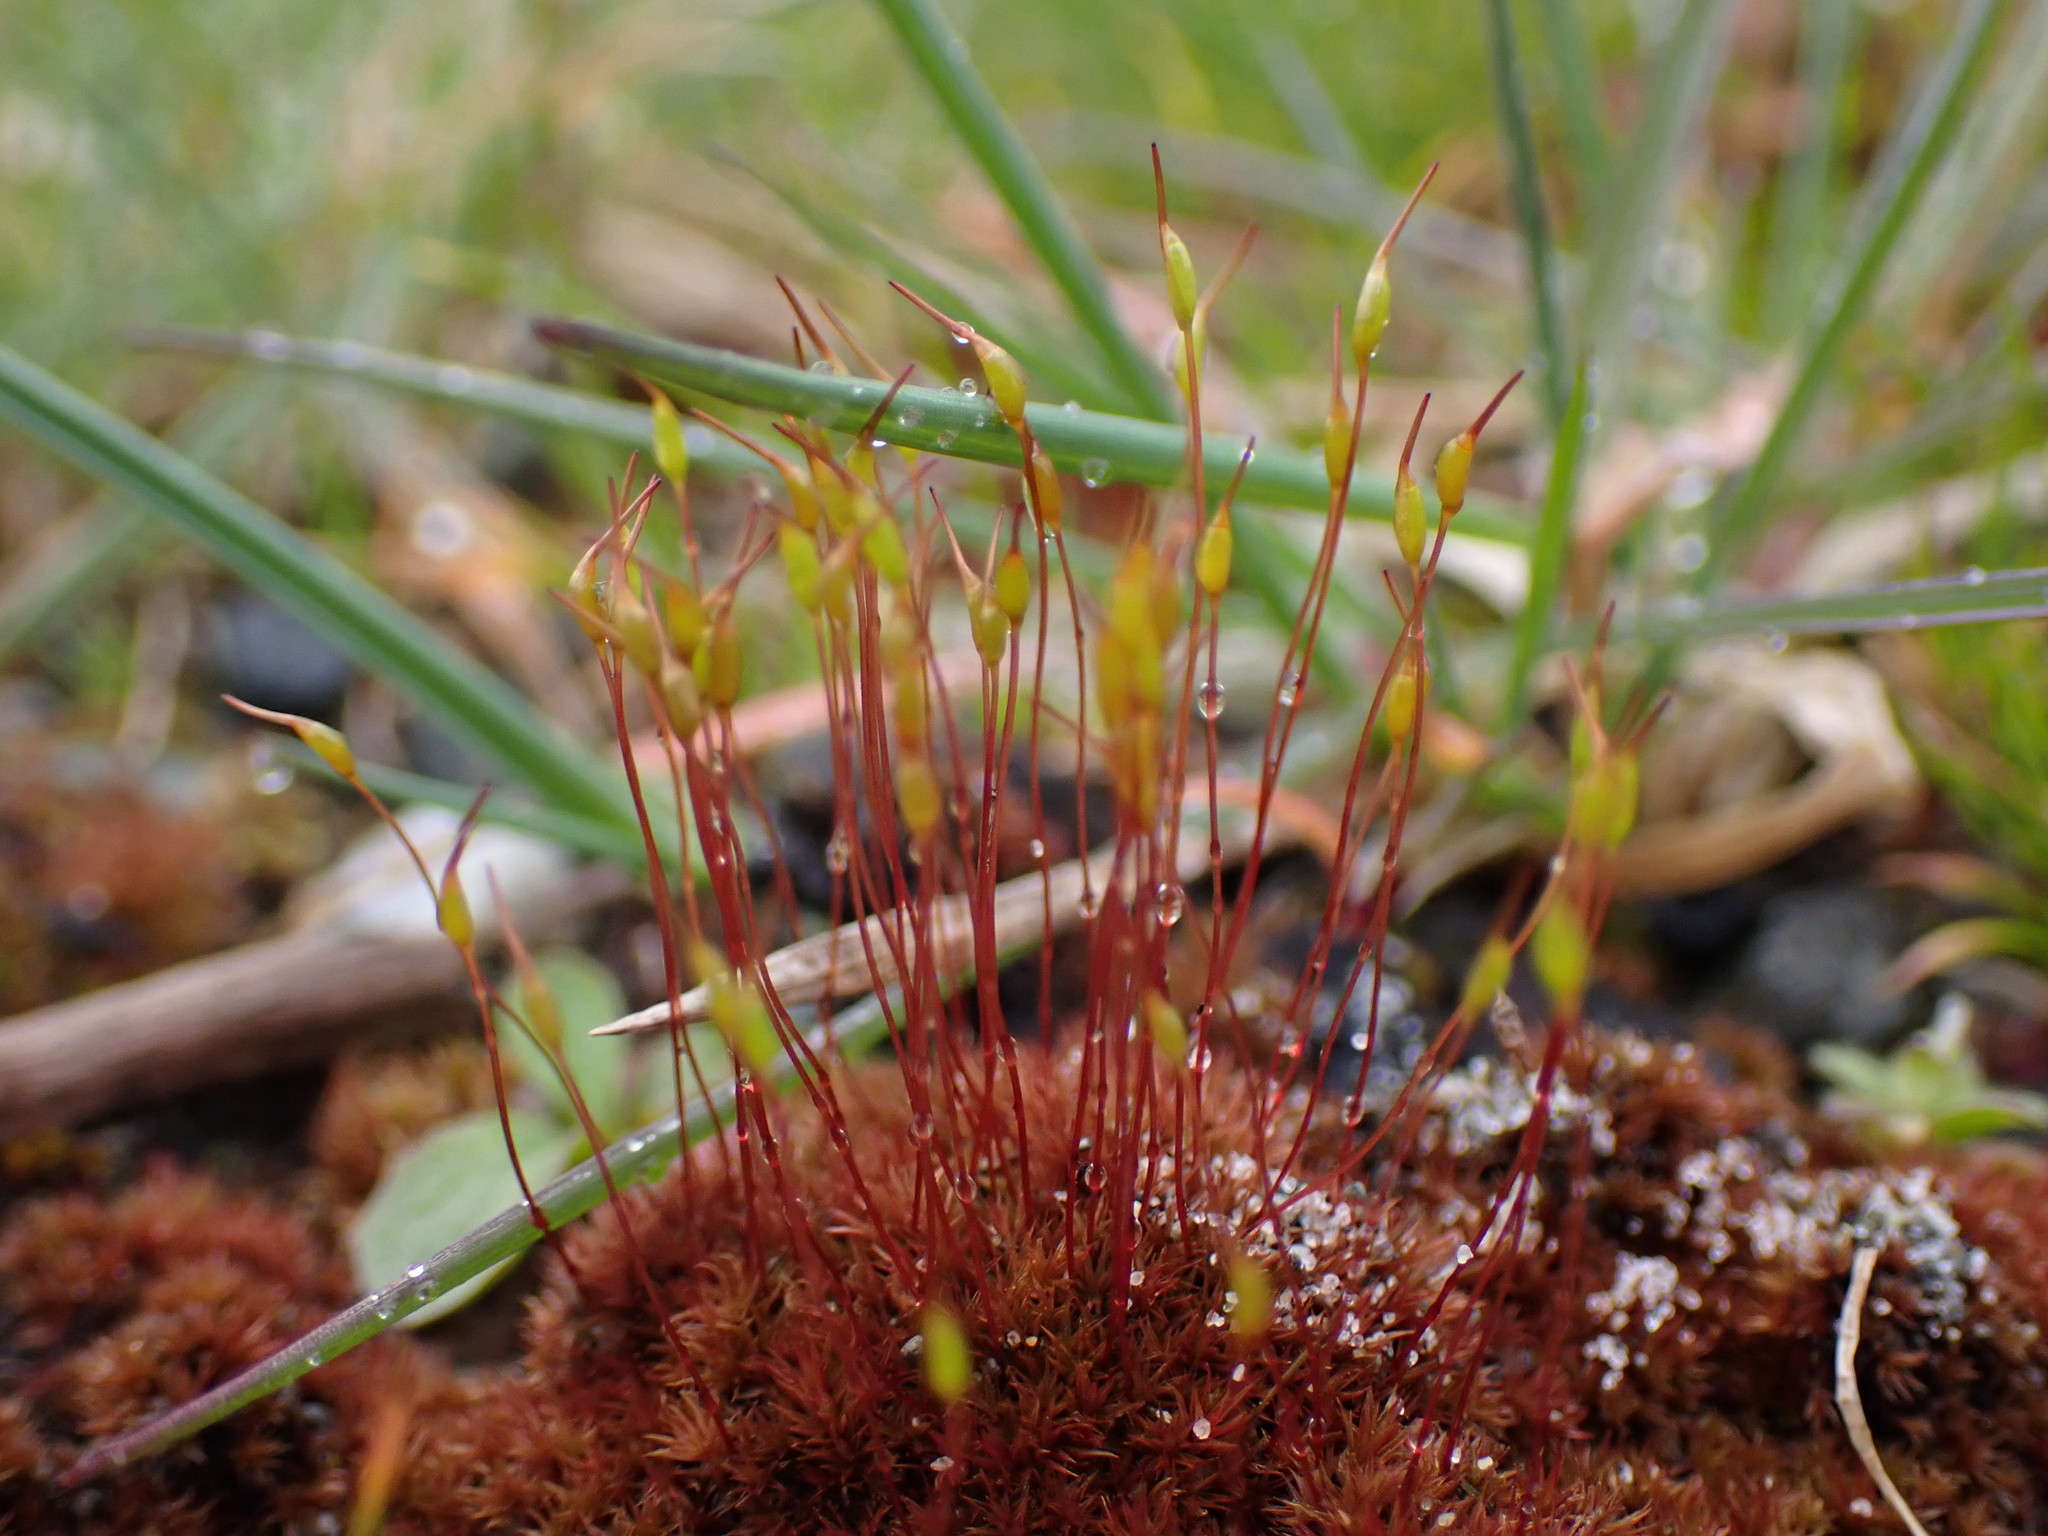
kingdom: Plantae
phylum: Bryophyta
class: Bryopsida
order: Dicranales
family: Ditrichaceae
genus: Ceratodon
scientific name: Ceratodon purpureus
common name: Redshank
